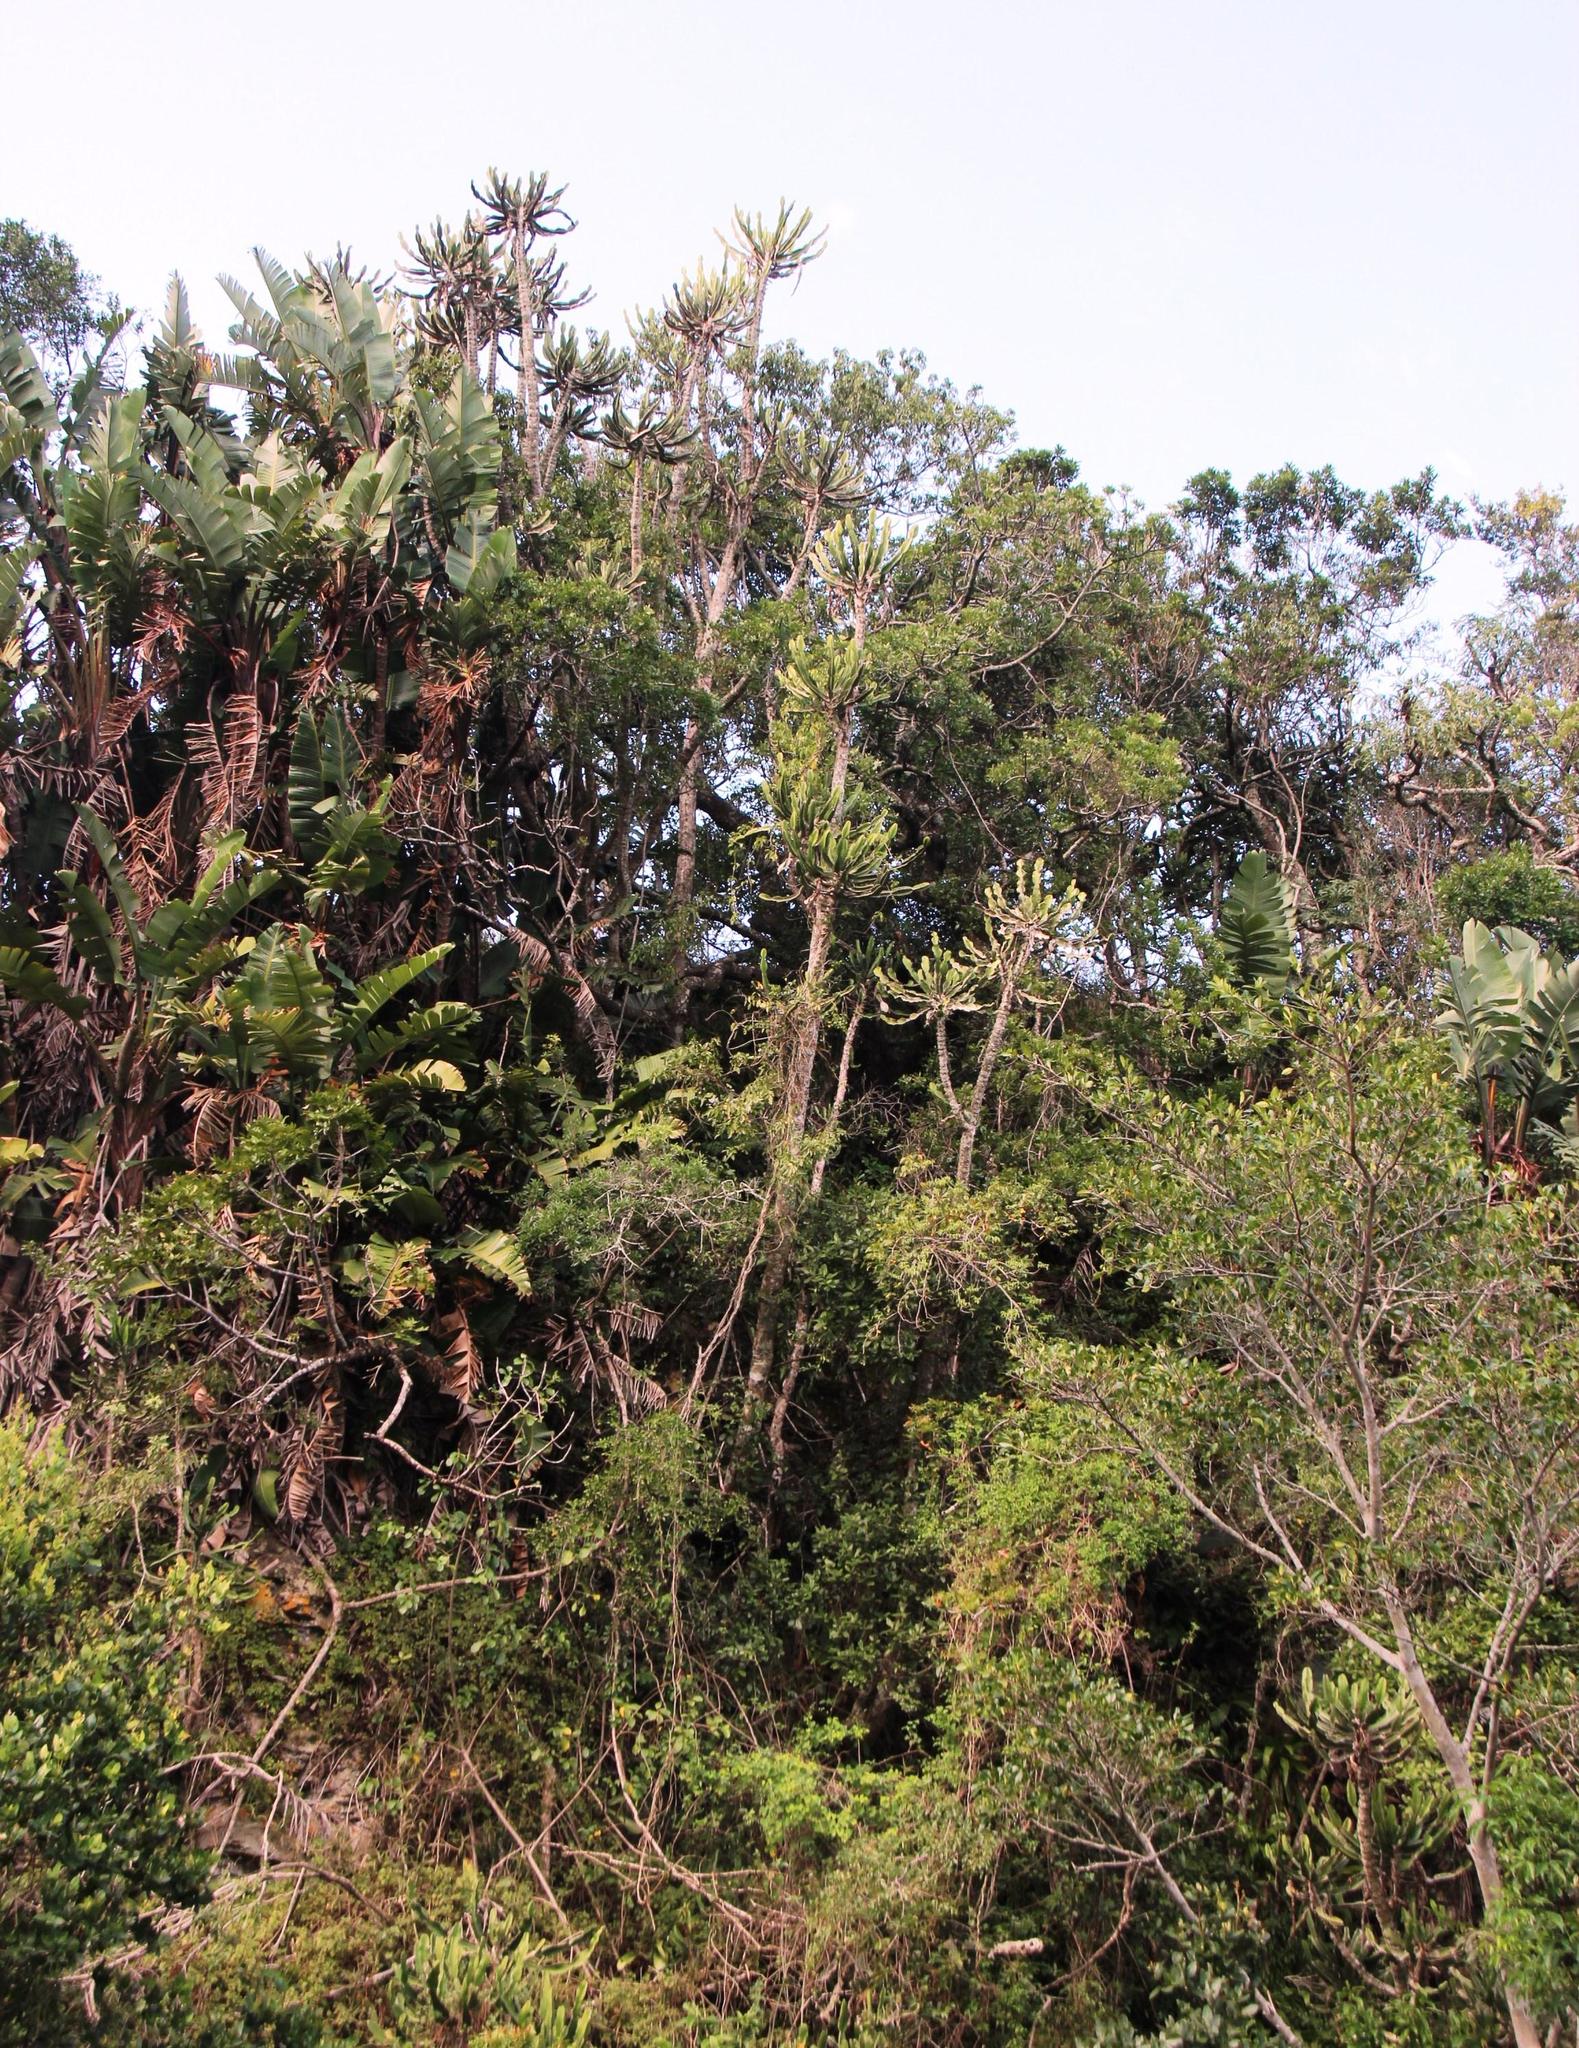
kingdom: Plantae
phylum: Tracheophyta
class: Magnoliopsida
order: Malpighiales
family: Euphorbiaceae
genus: Euphorbia
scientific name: Euphorbia triangularis
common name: Chandelier tree
